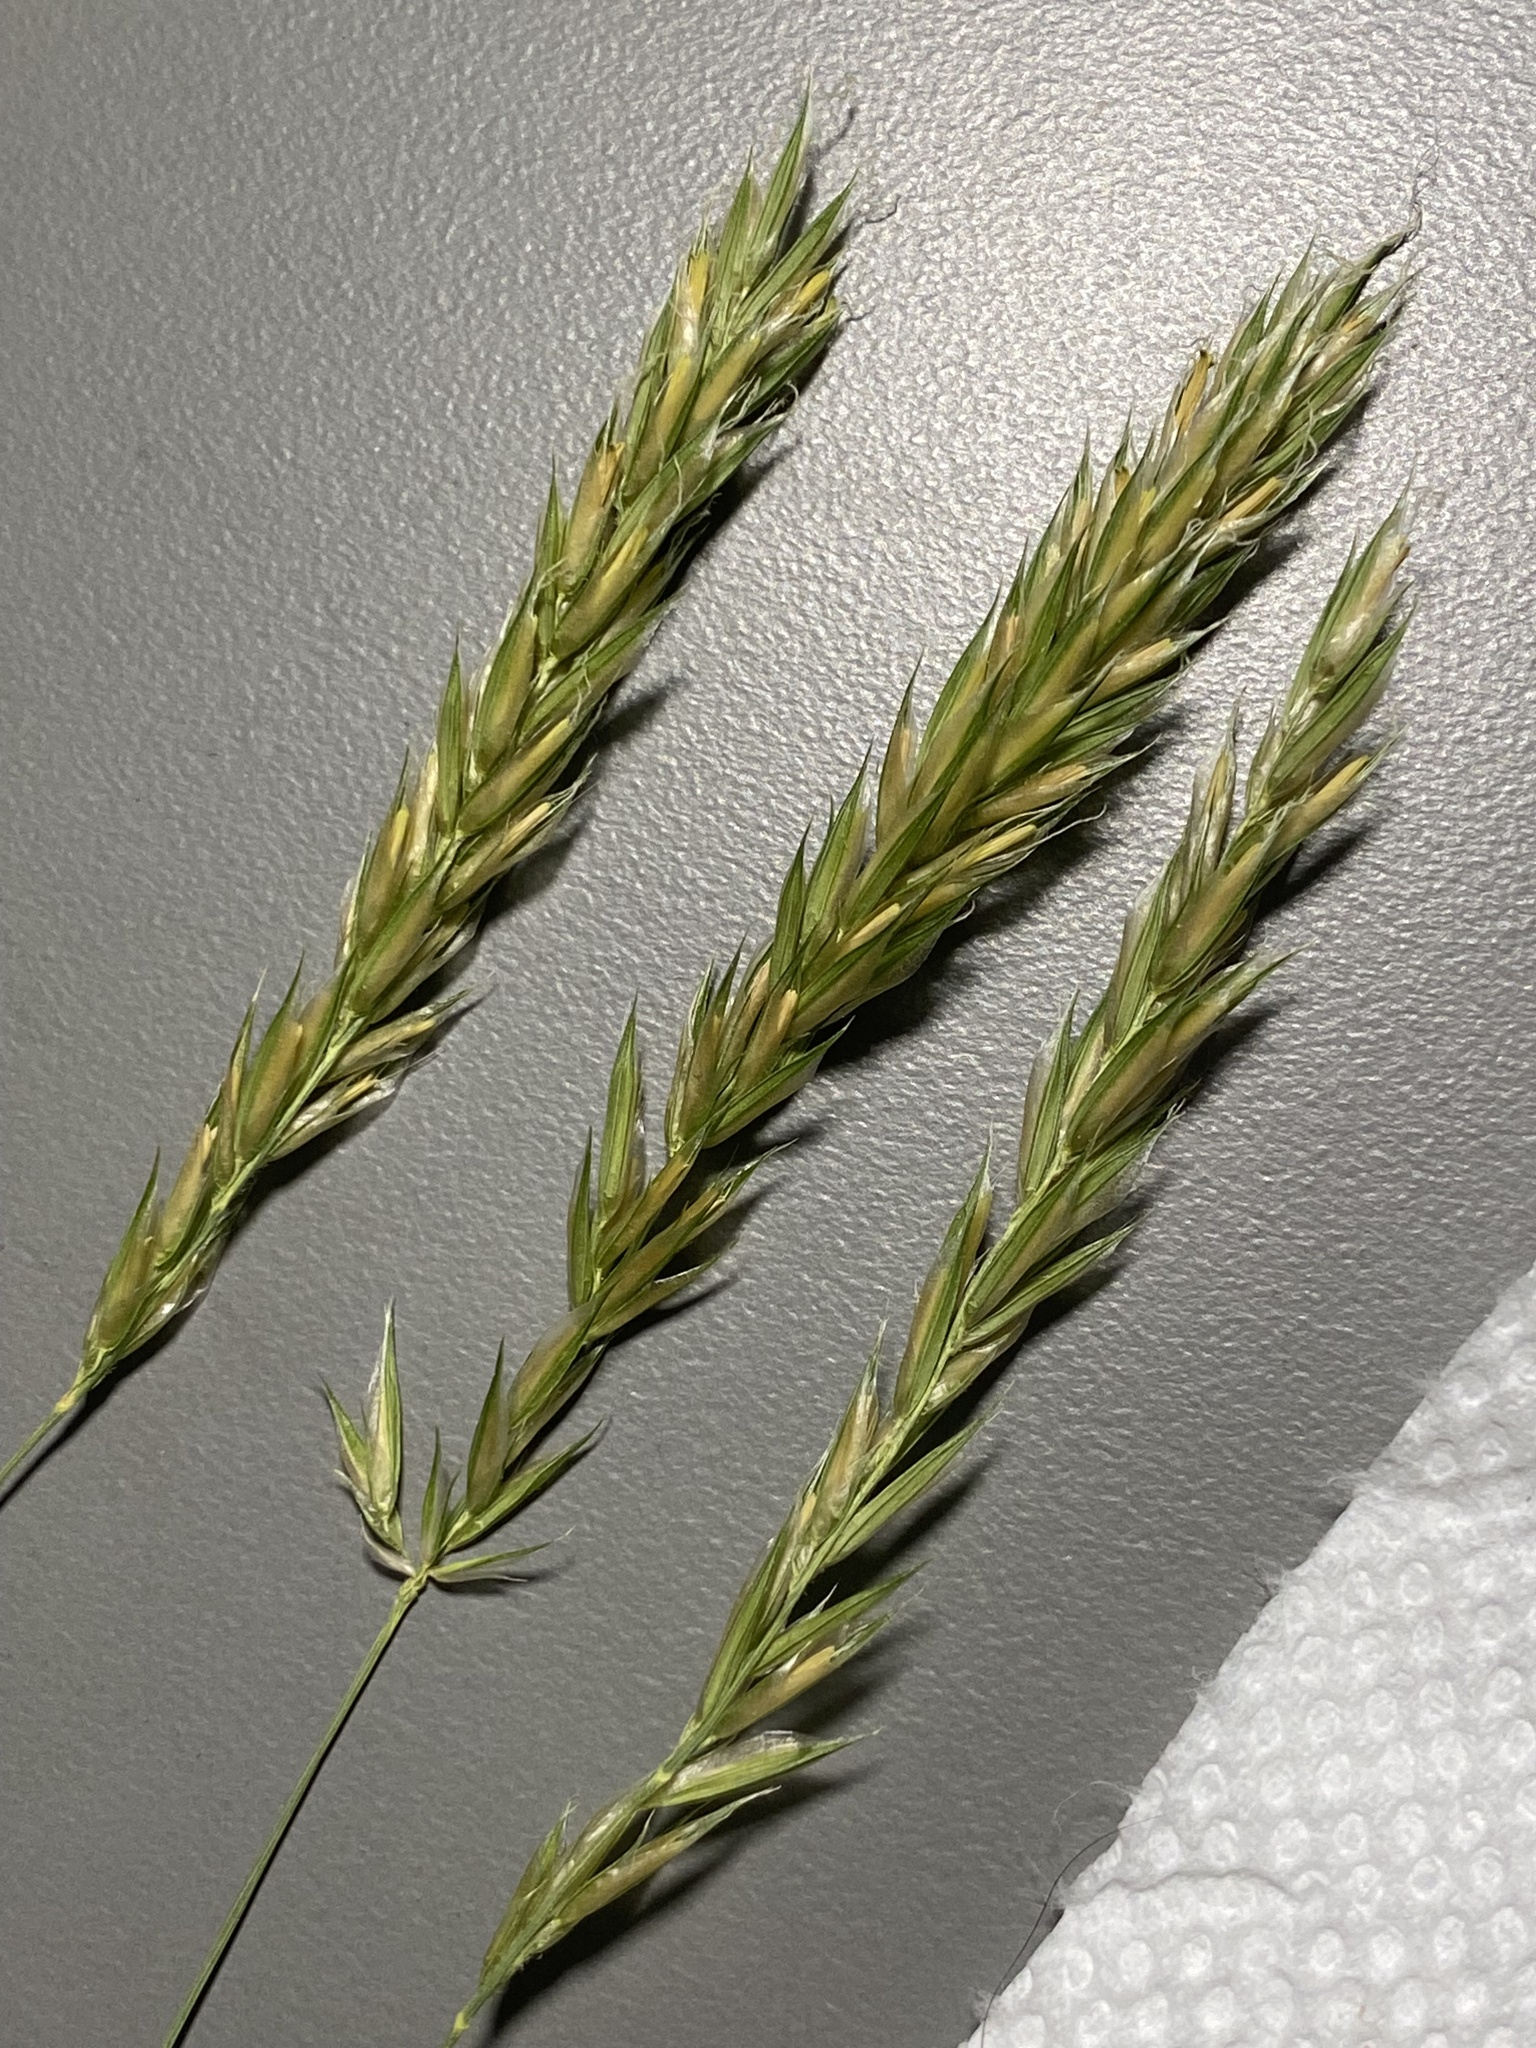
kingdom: Plantae
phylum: Tracheophyta
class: Liliopsida
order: Poales
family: Poaceae
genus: Anthoxanthum
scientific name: Anthoxanthum odoratum
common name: Sweet vernalgrass
